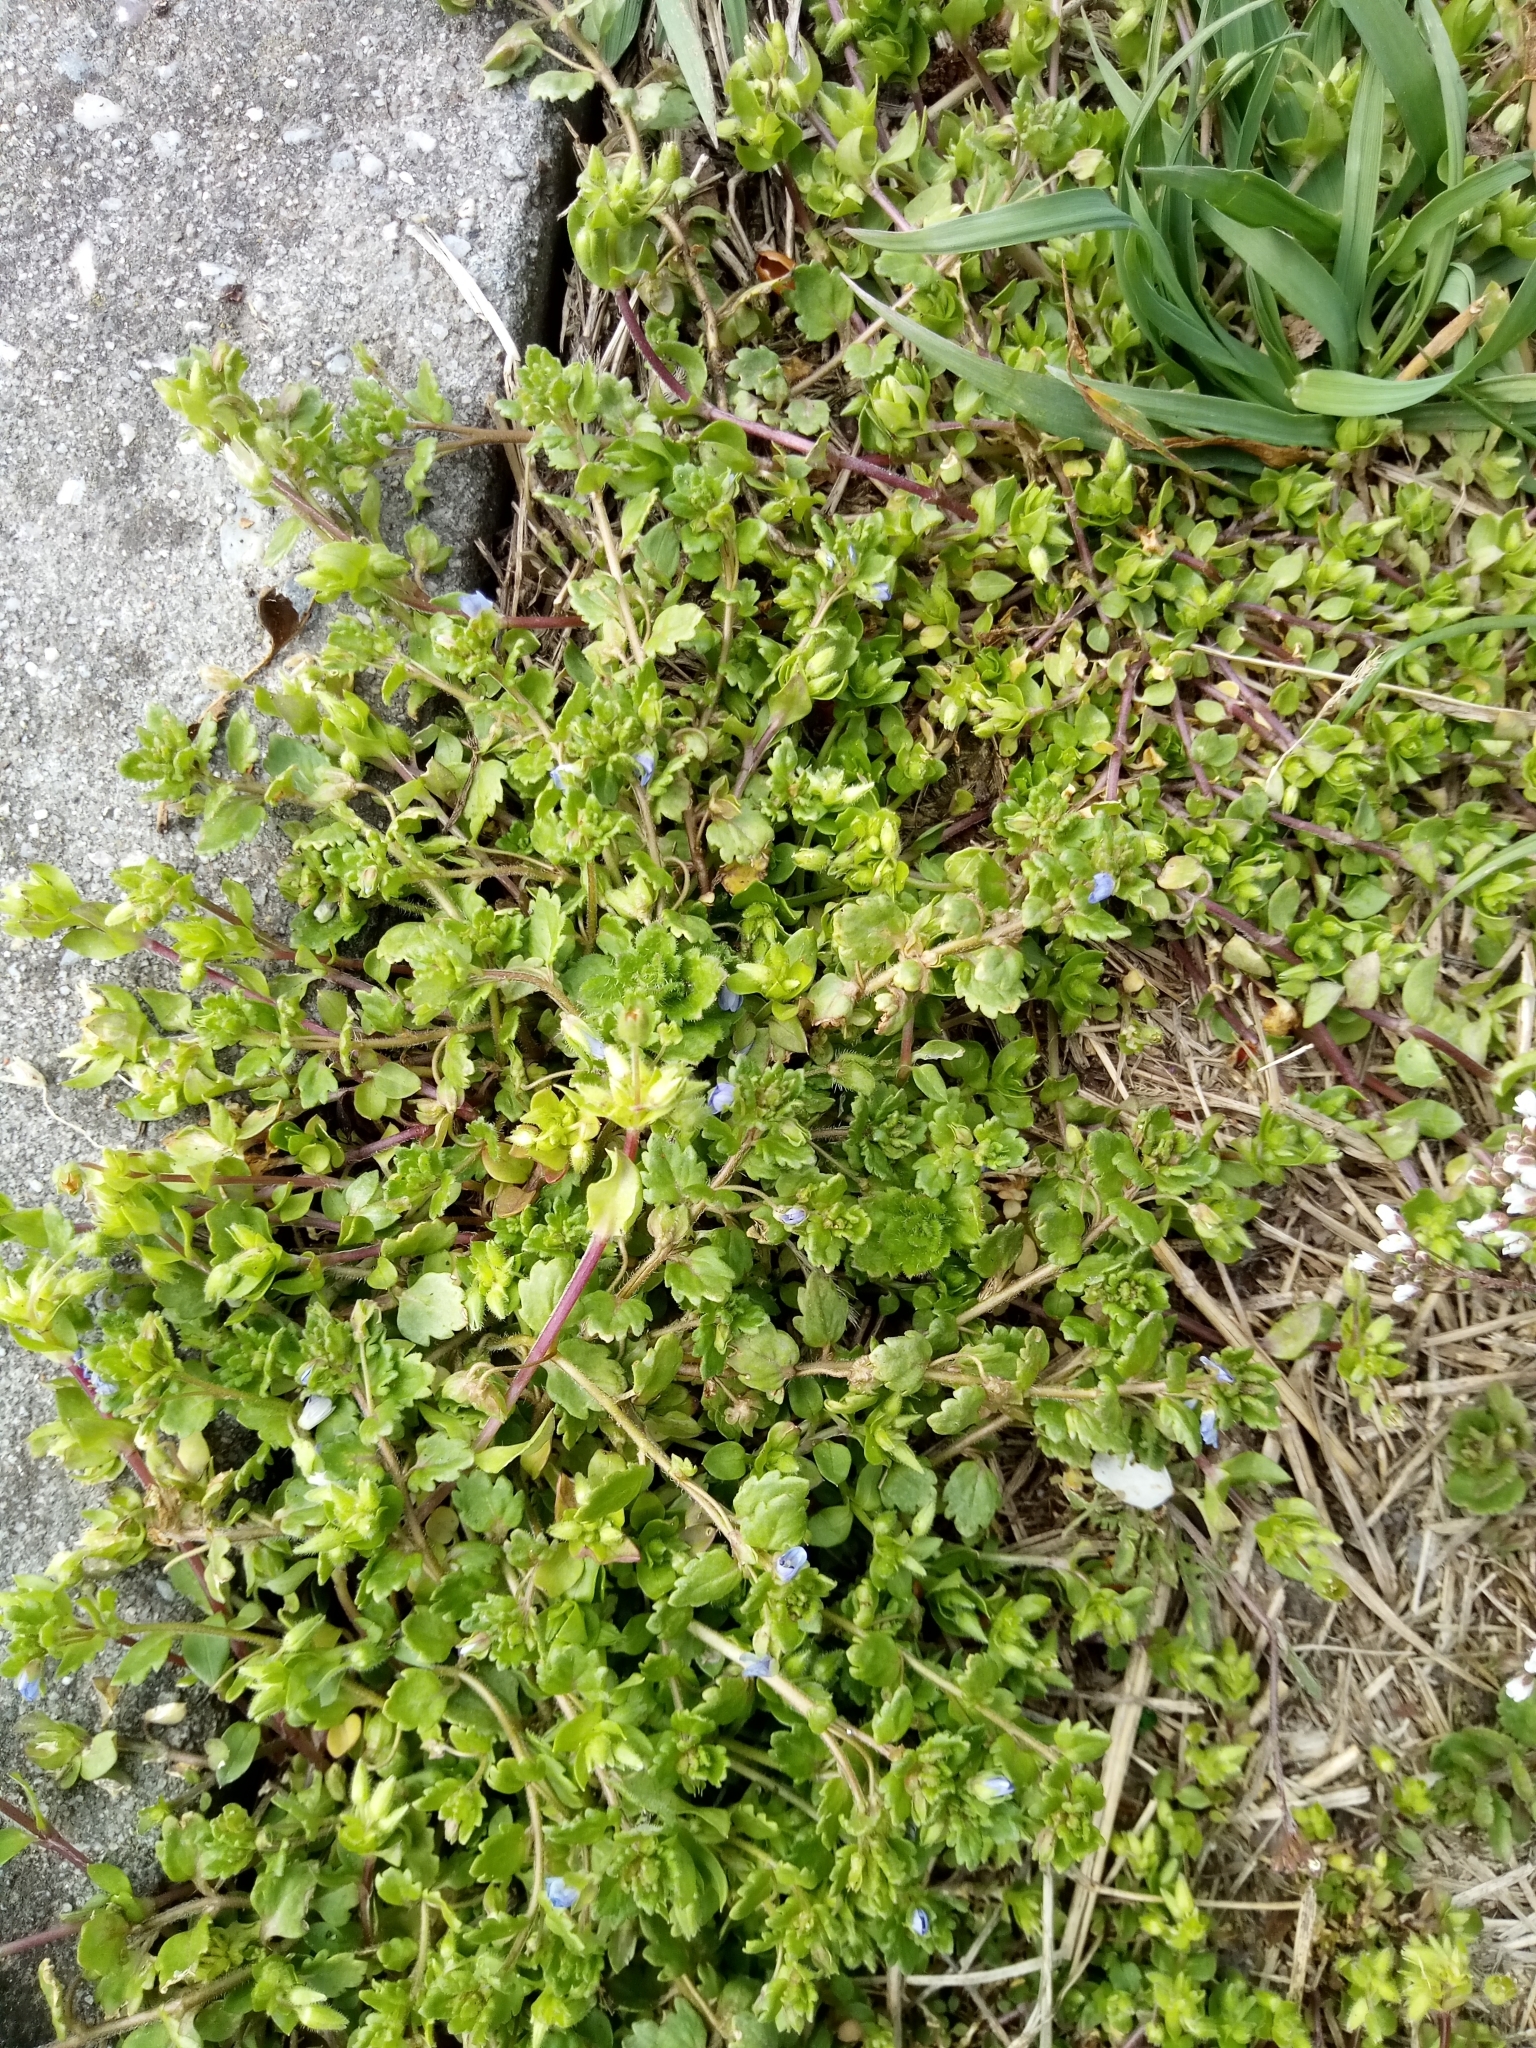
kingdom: Plantae
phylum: Tracheophyta
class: Magnoliopsida
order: Lamiales
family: Plantaginaceae
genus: Veronica
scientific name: Veronica polita
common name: Grey field-speedwell
